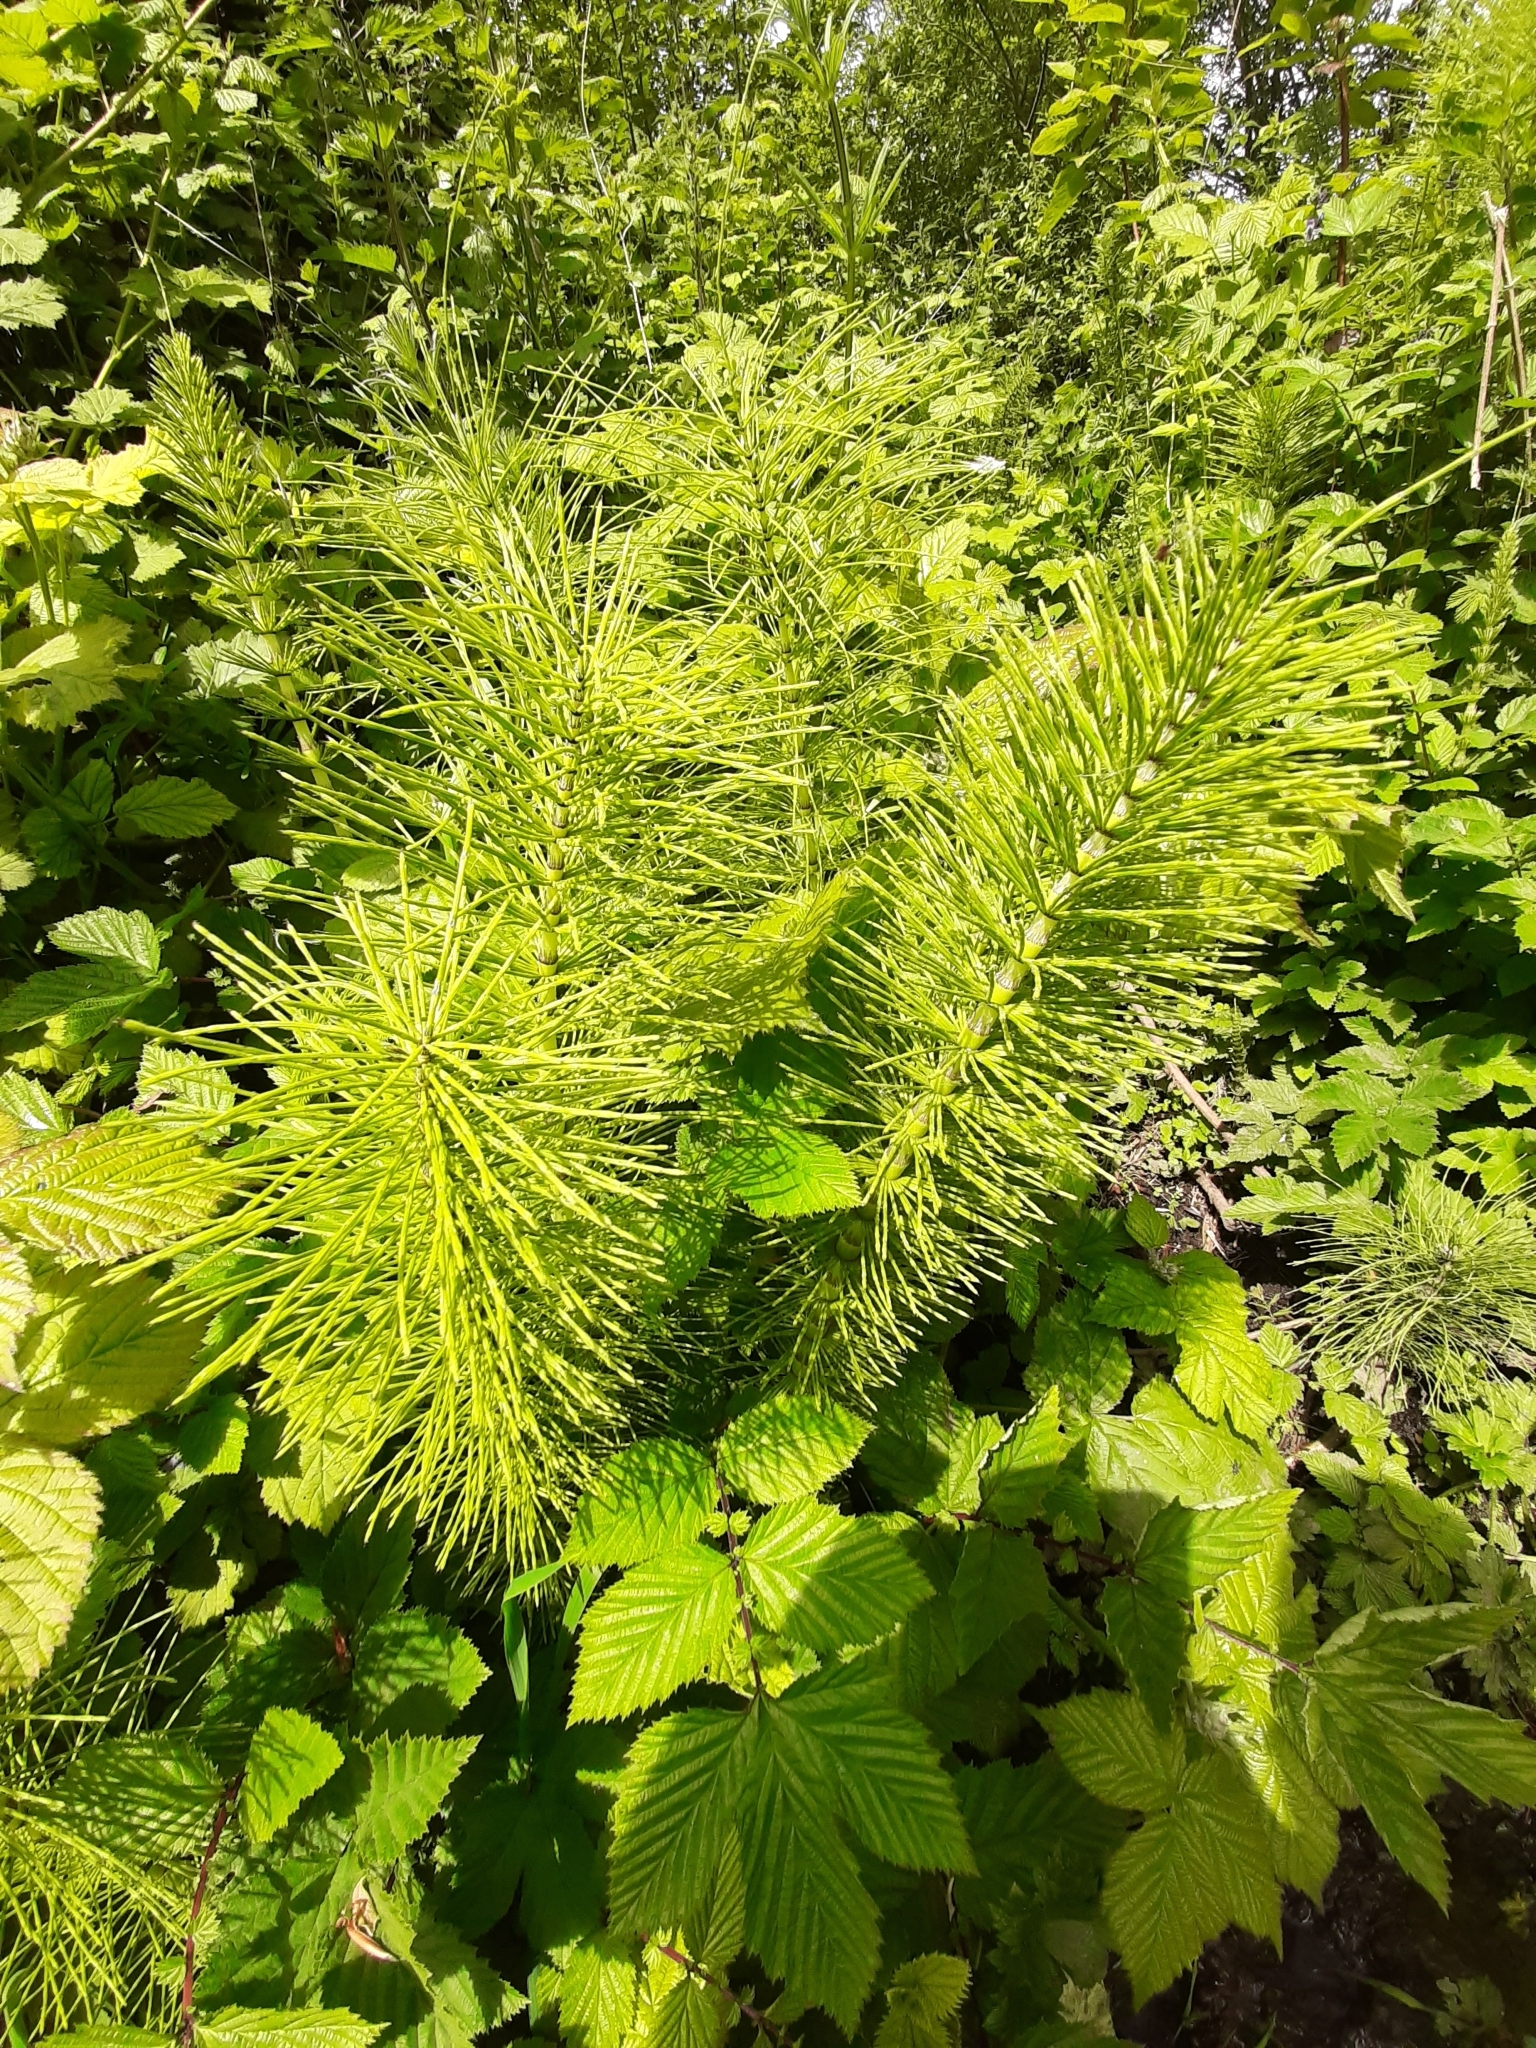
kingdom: Plantae
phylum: Tracheophyta
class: Polypodiopsida
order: Equisetales
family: Equisetaceae
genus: Equisetum
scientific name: Equisetum telmateia
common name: Great horsetail
